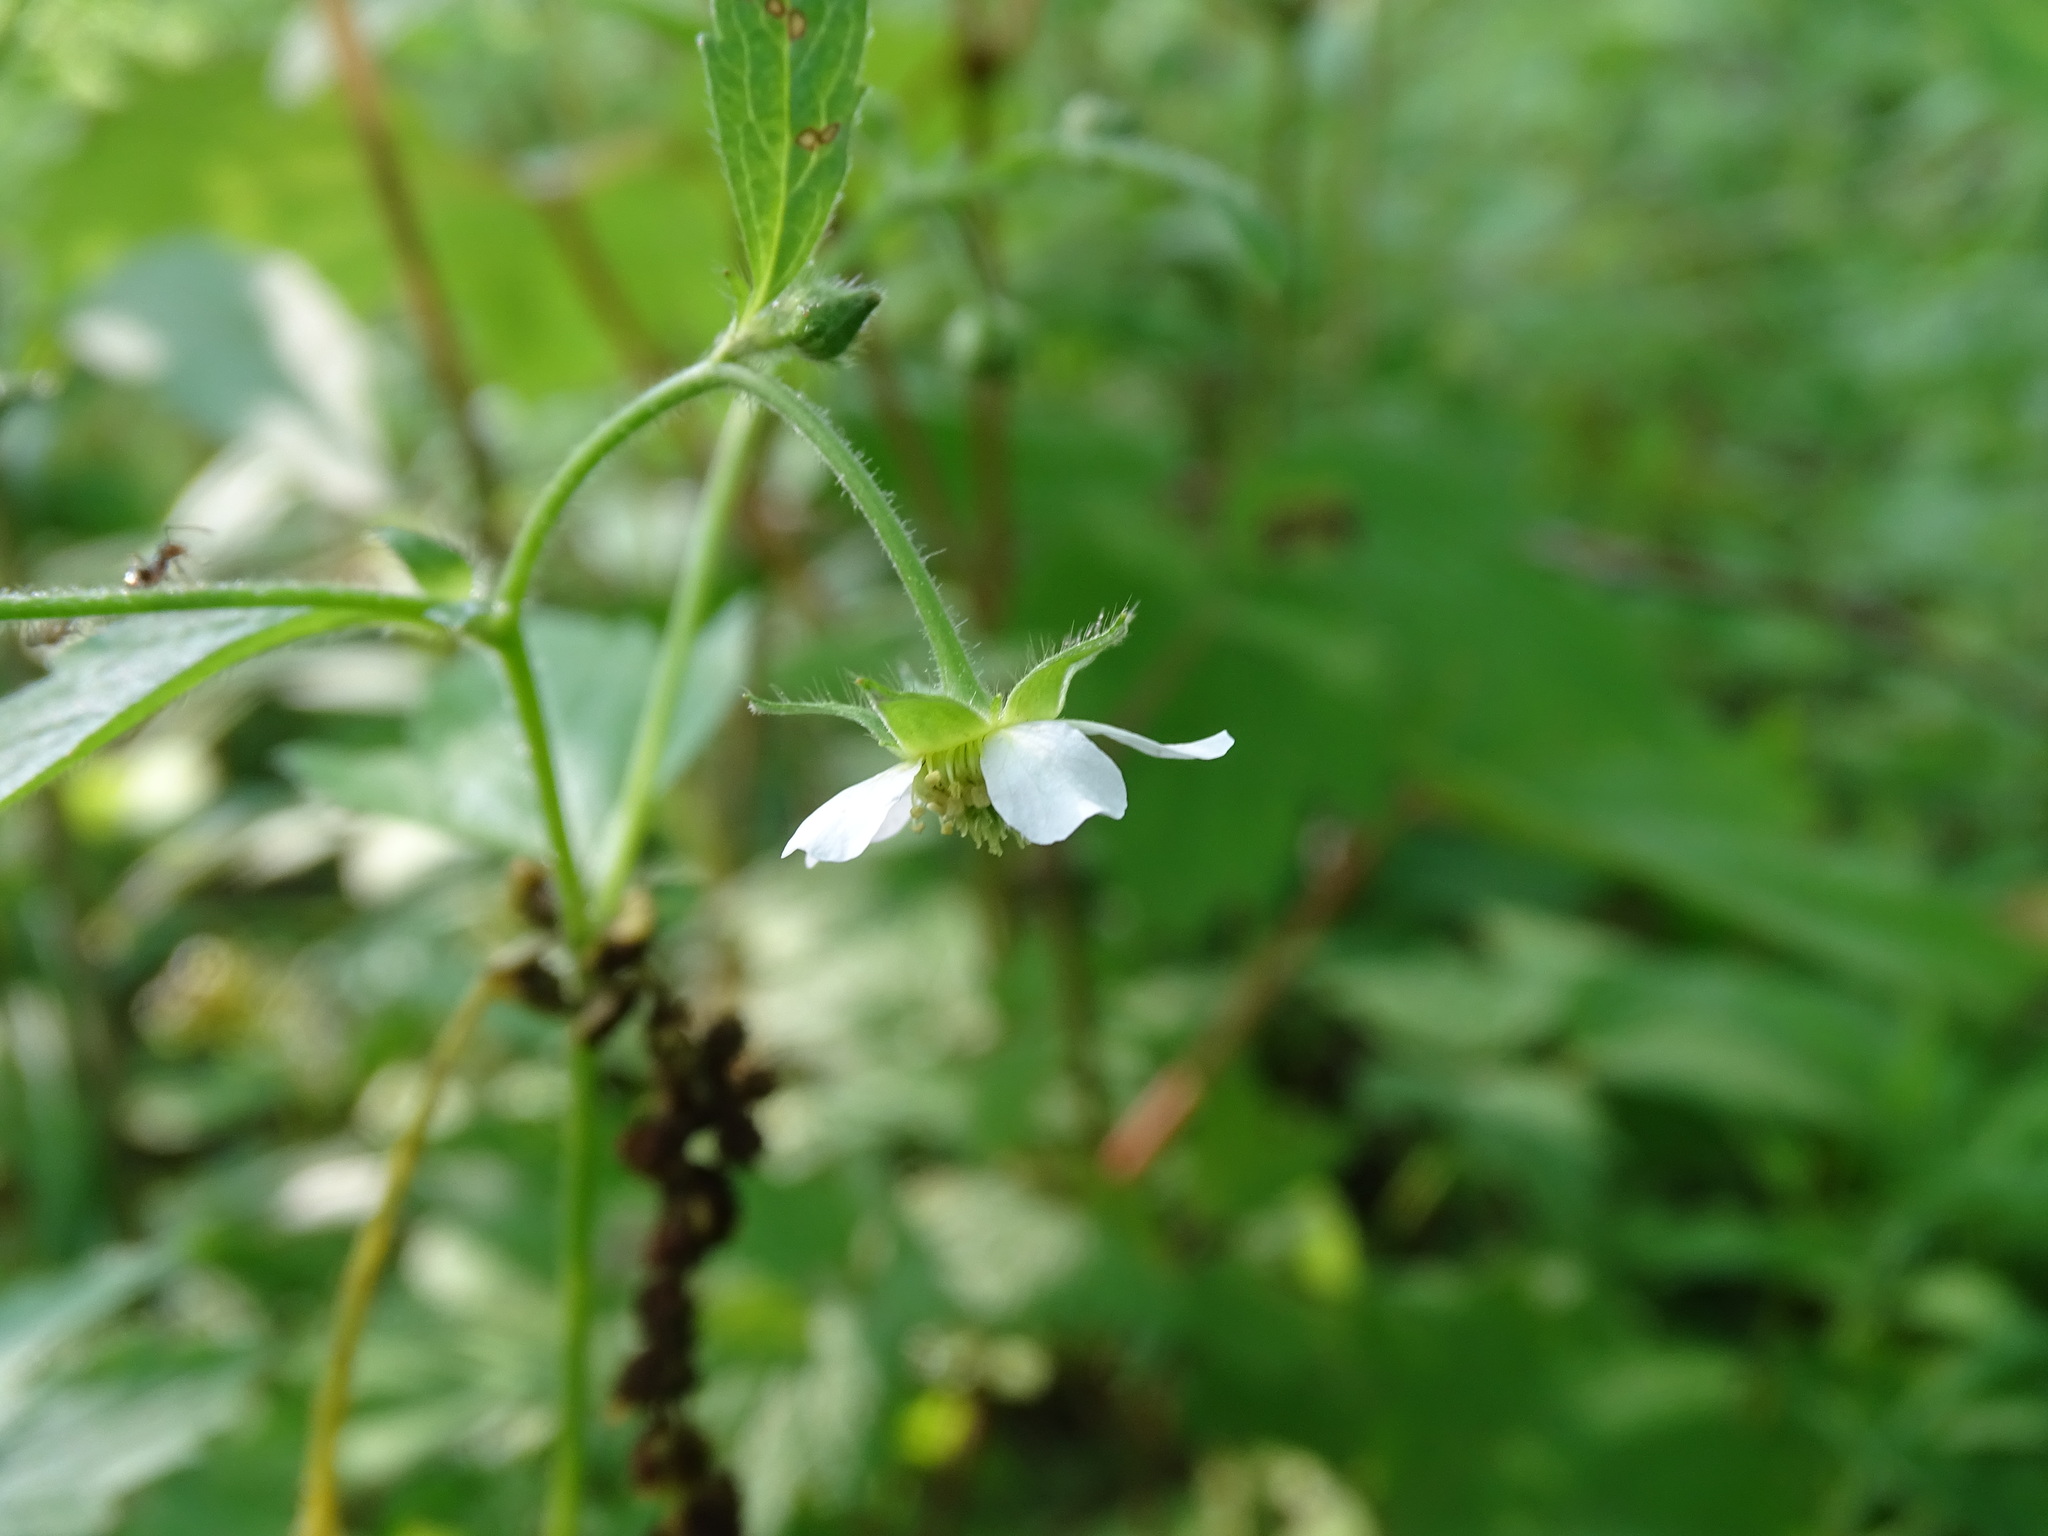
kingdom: Plantae
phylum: Tracheophyta
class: Magnoliopsida
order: Rosales
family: Rosaceae
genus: Geum
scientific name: Geum canadense
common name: White avens
